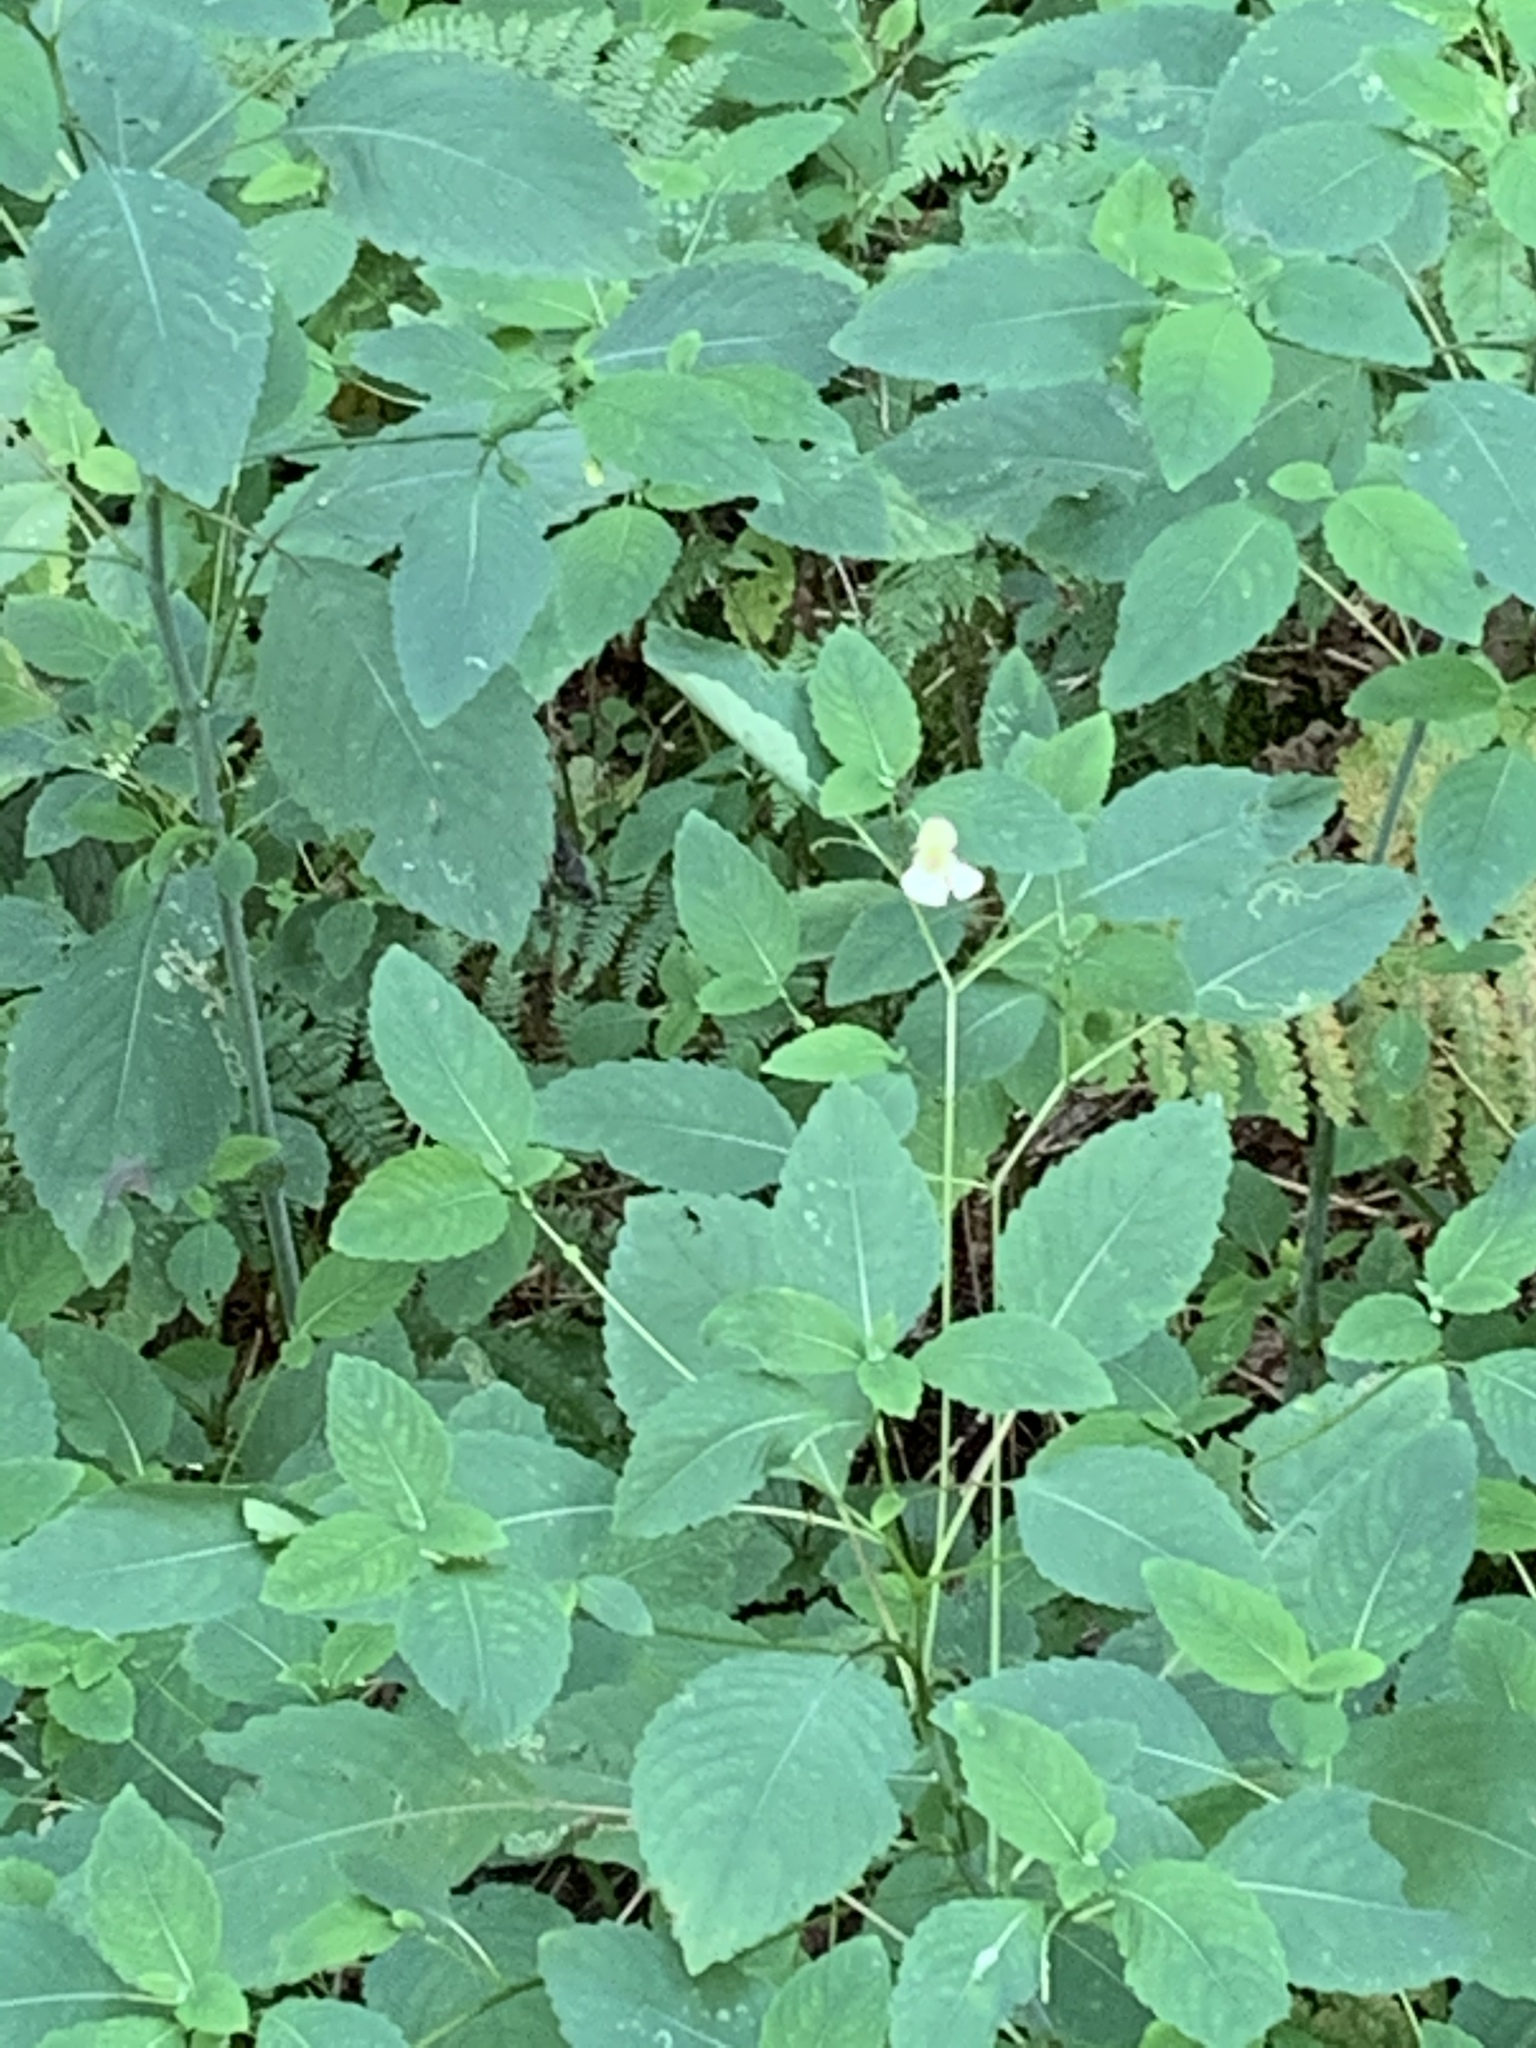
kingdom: Plantae
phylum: Tracheophyta
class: Magnoliopsida
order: Ericales
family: Balsaminaceae
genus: Impatiens
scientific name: Impatiens pallida
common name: Pale snapweed
